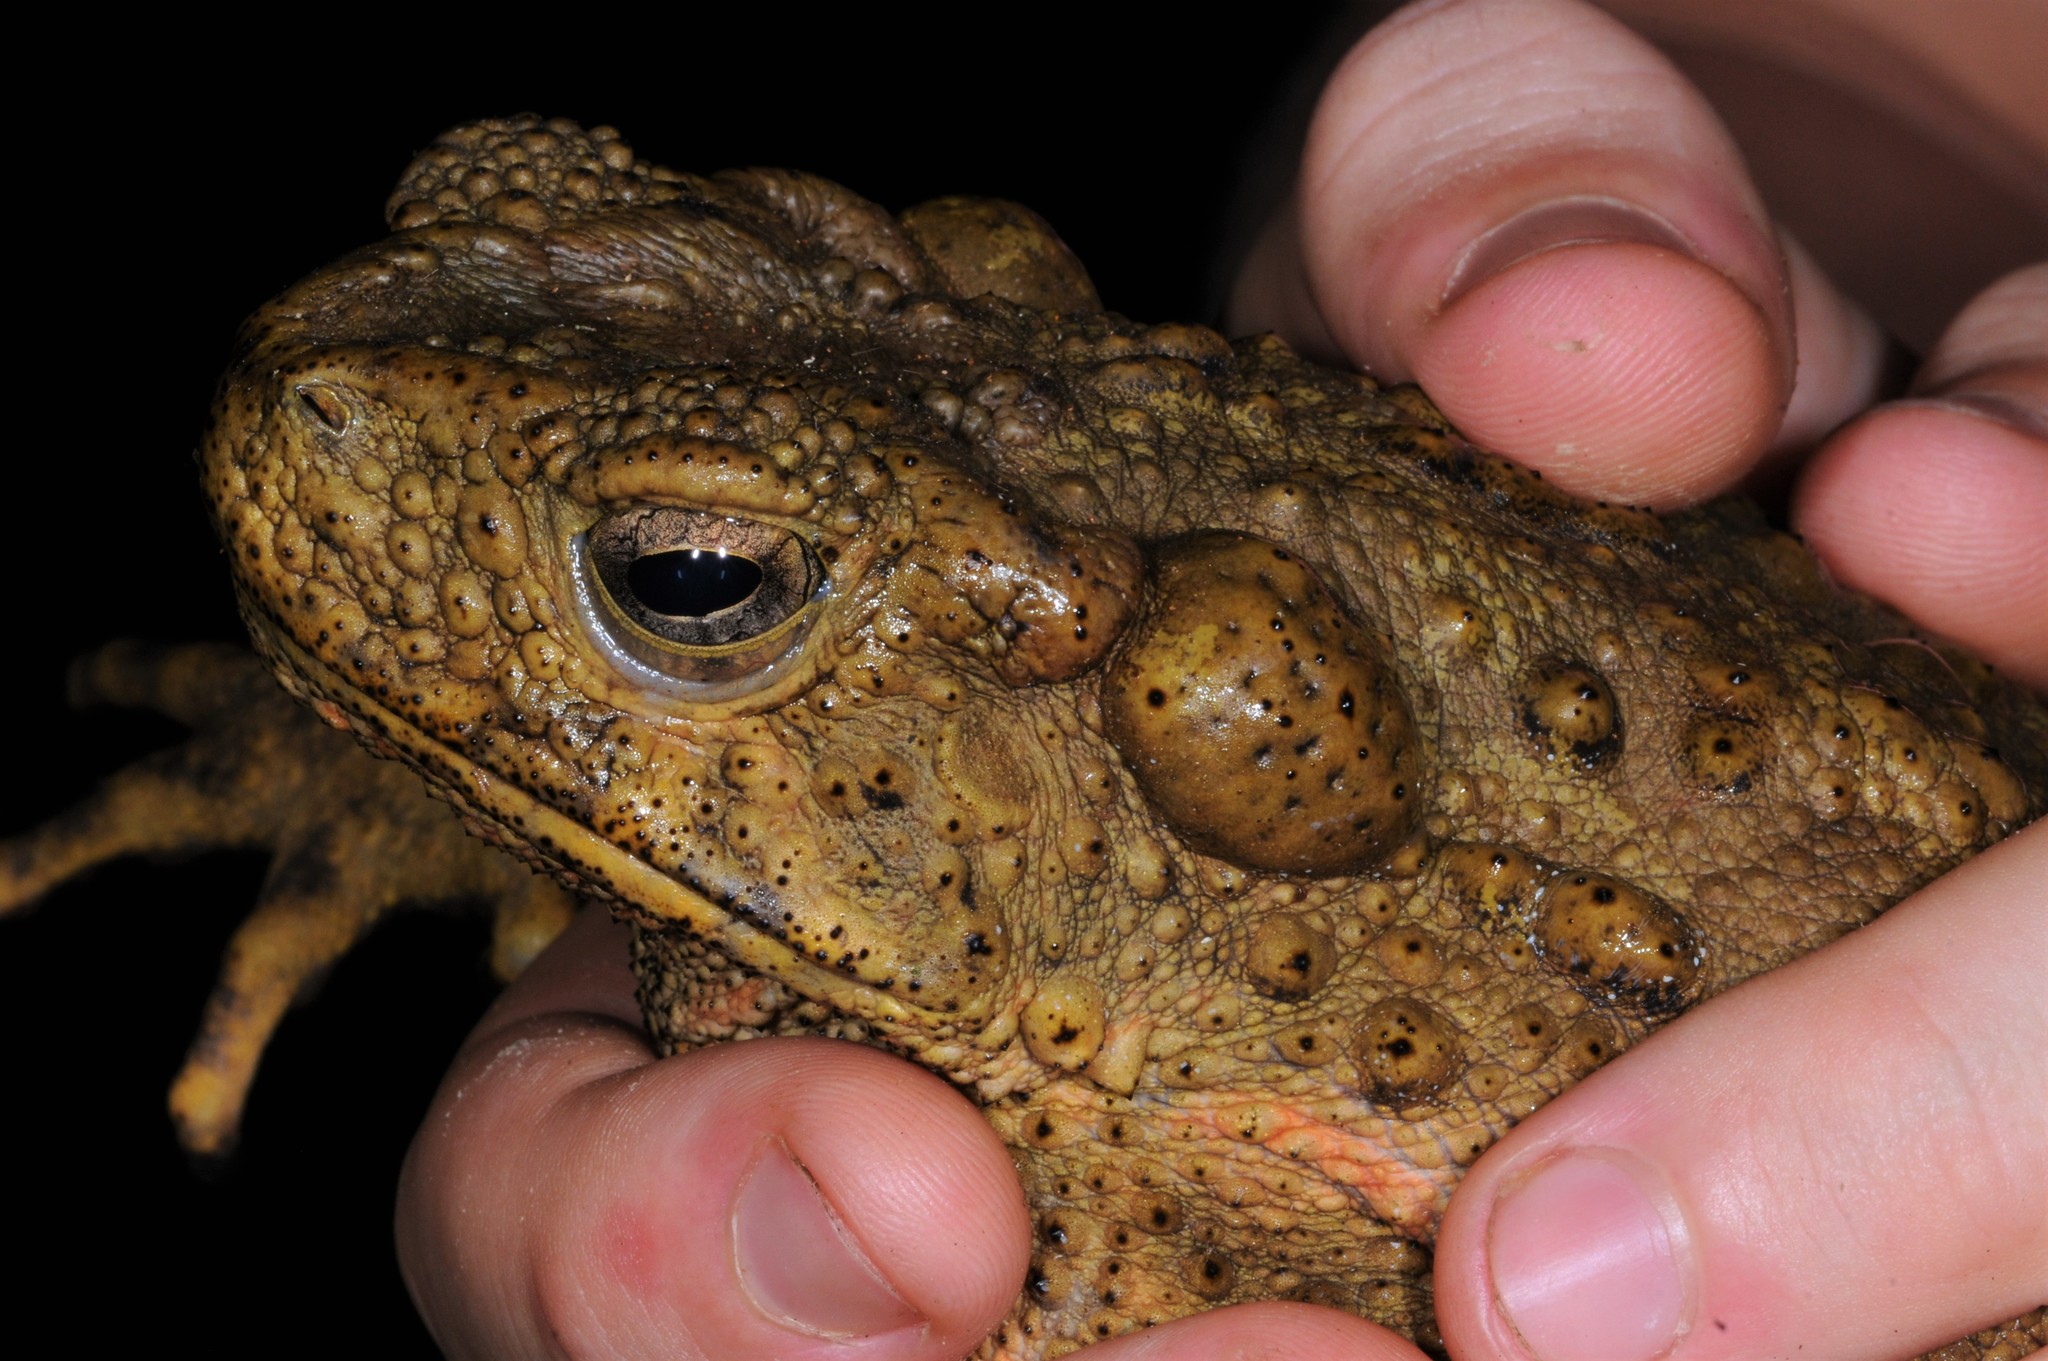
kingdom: Animalia
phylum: Chordata
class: Amphibia
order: Anura
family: Bufonidae
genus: Phrynoidis
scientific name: Phrynoidis asper
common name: Asian giant toad
